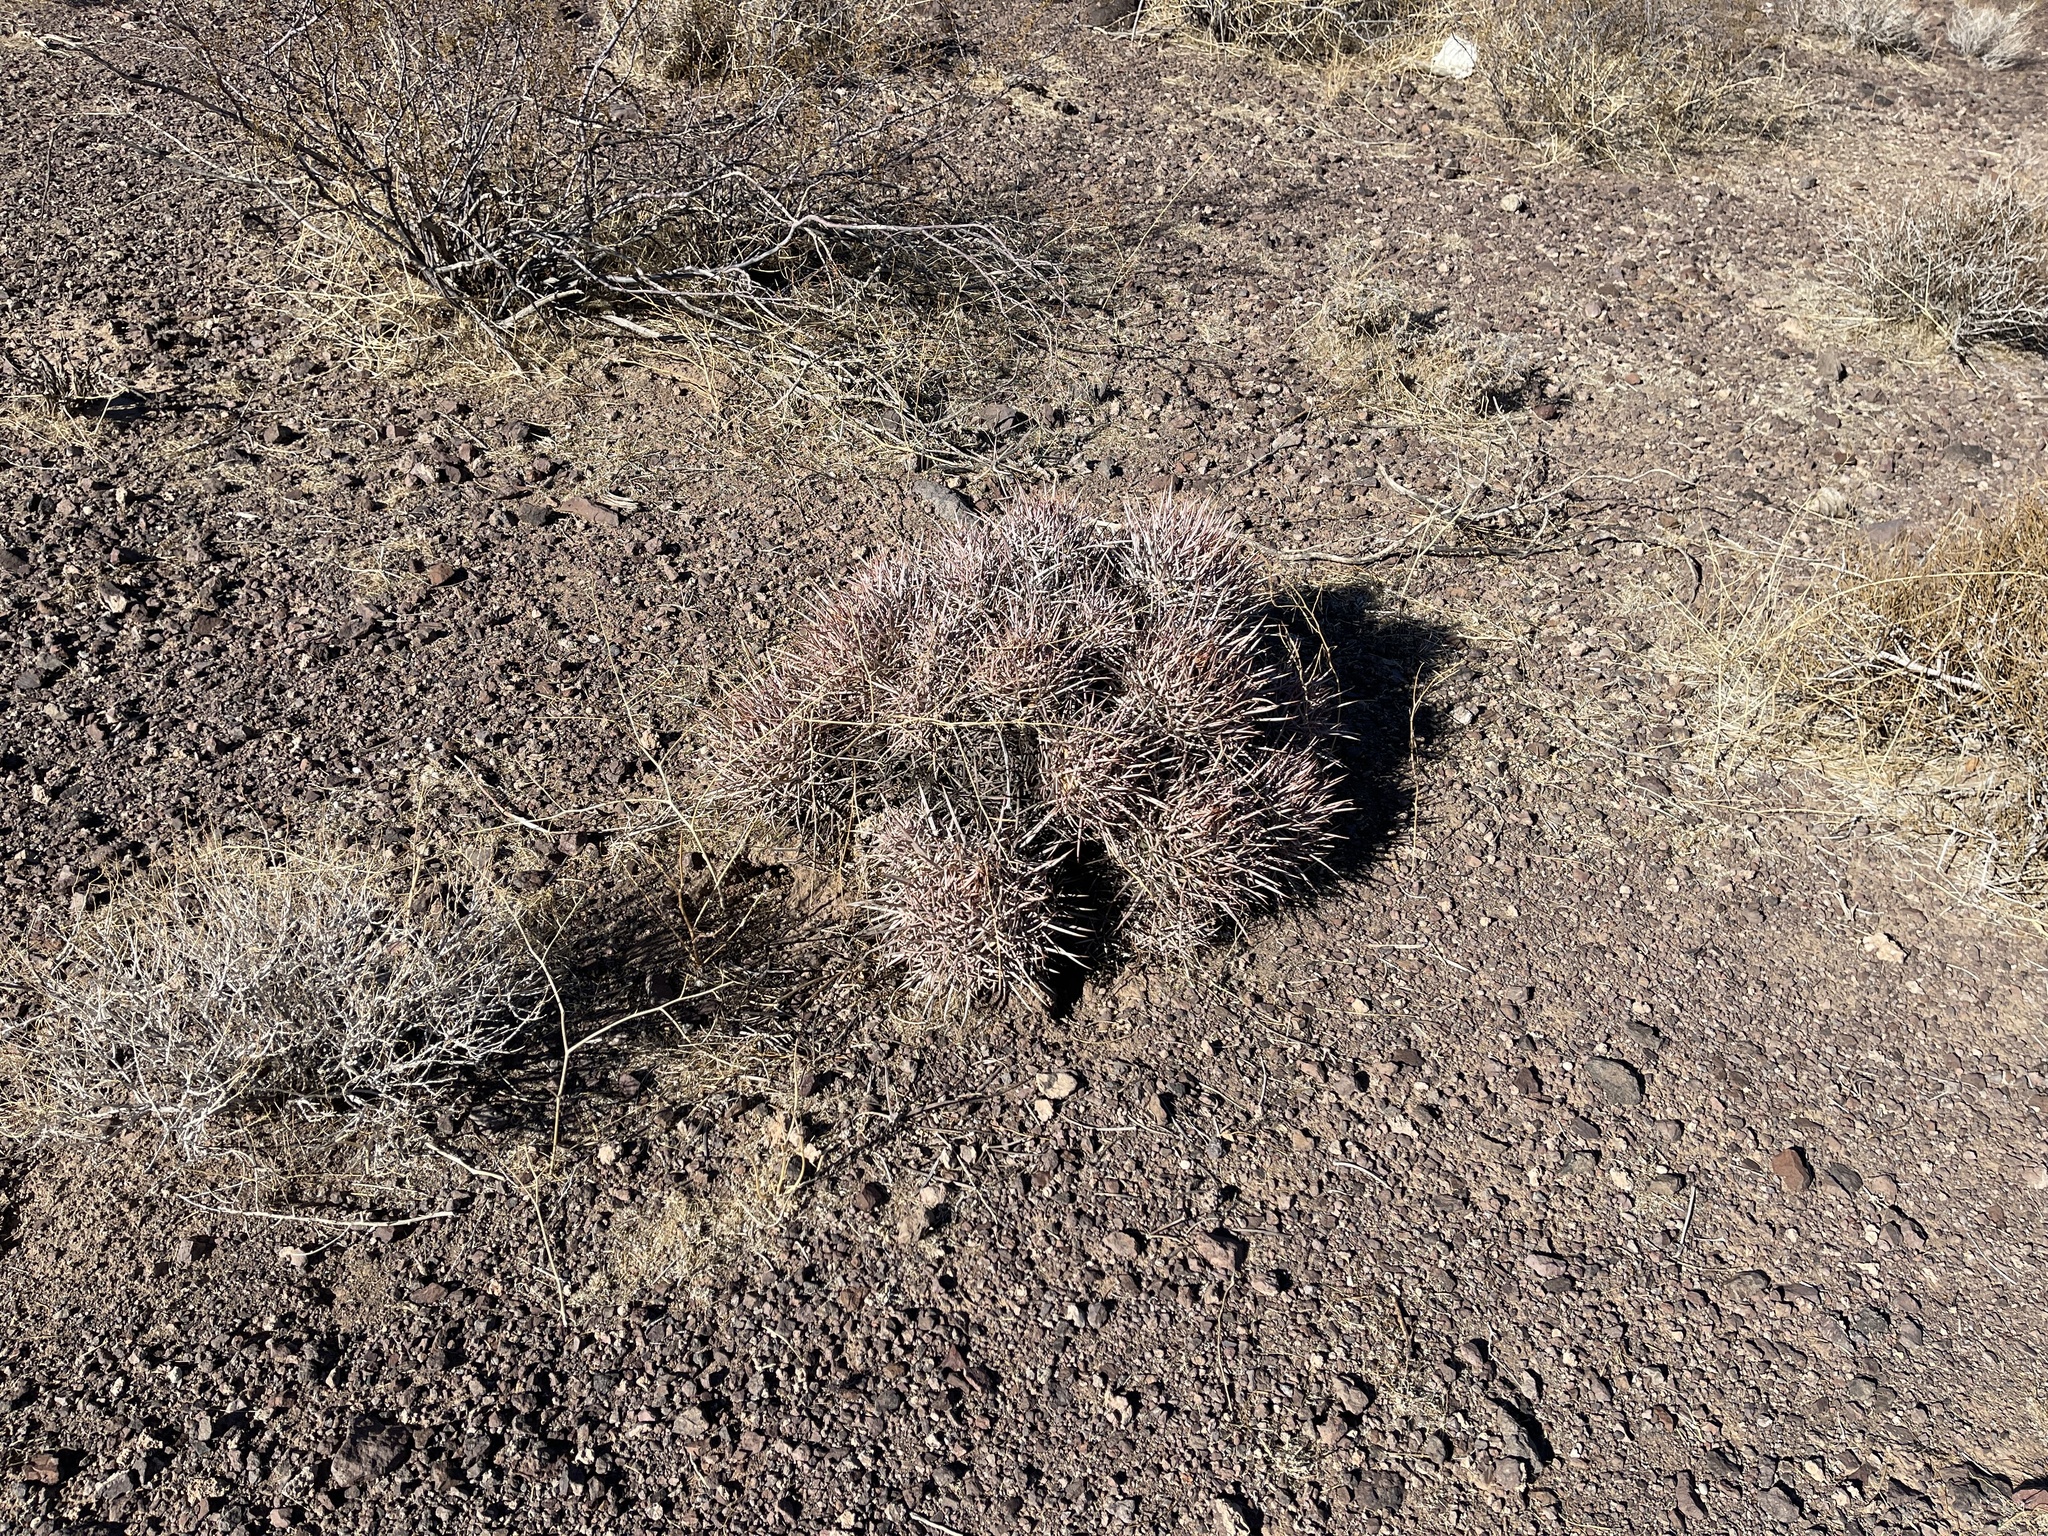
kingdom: Plantae
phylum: Tracheophyta
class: Magnoliopsida
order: Caryophyllales
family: Cactaceae
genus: Echinocactus
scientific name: Echinocactus polycephalus
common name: Cottontop cactus
